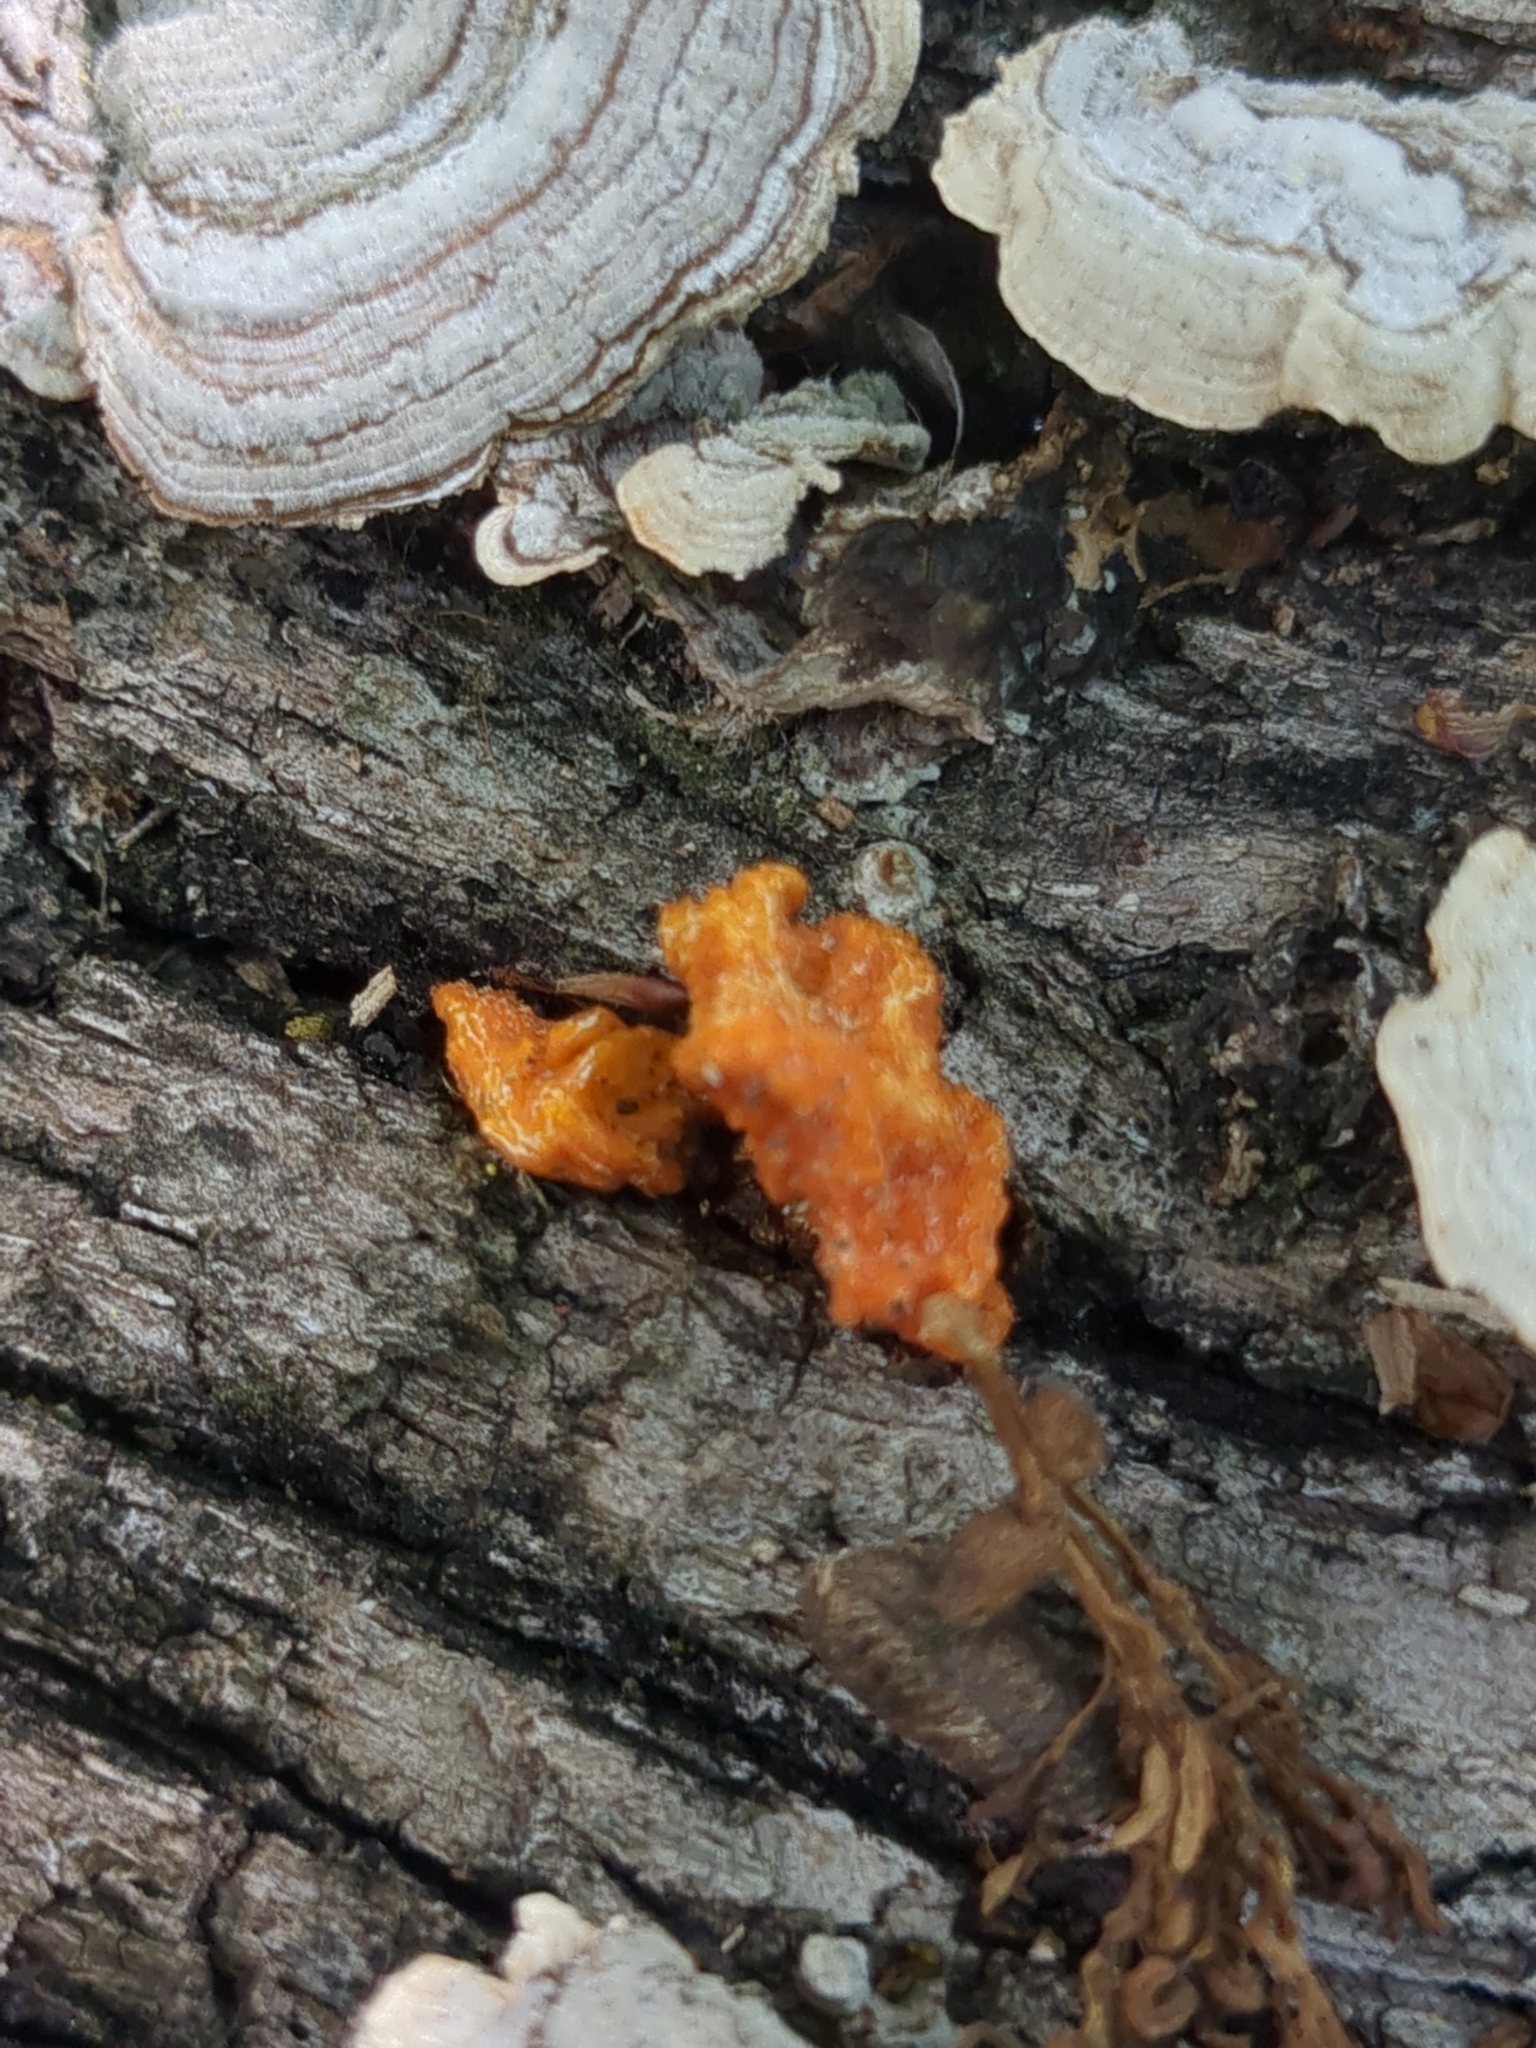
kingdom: Fungi
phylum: Basidiomycota
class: Tremellomycetes
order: Tremellales
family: Naemateliaceae
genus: Naematelia
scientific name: Naematelia aurantia
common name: Golden ear
